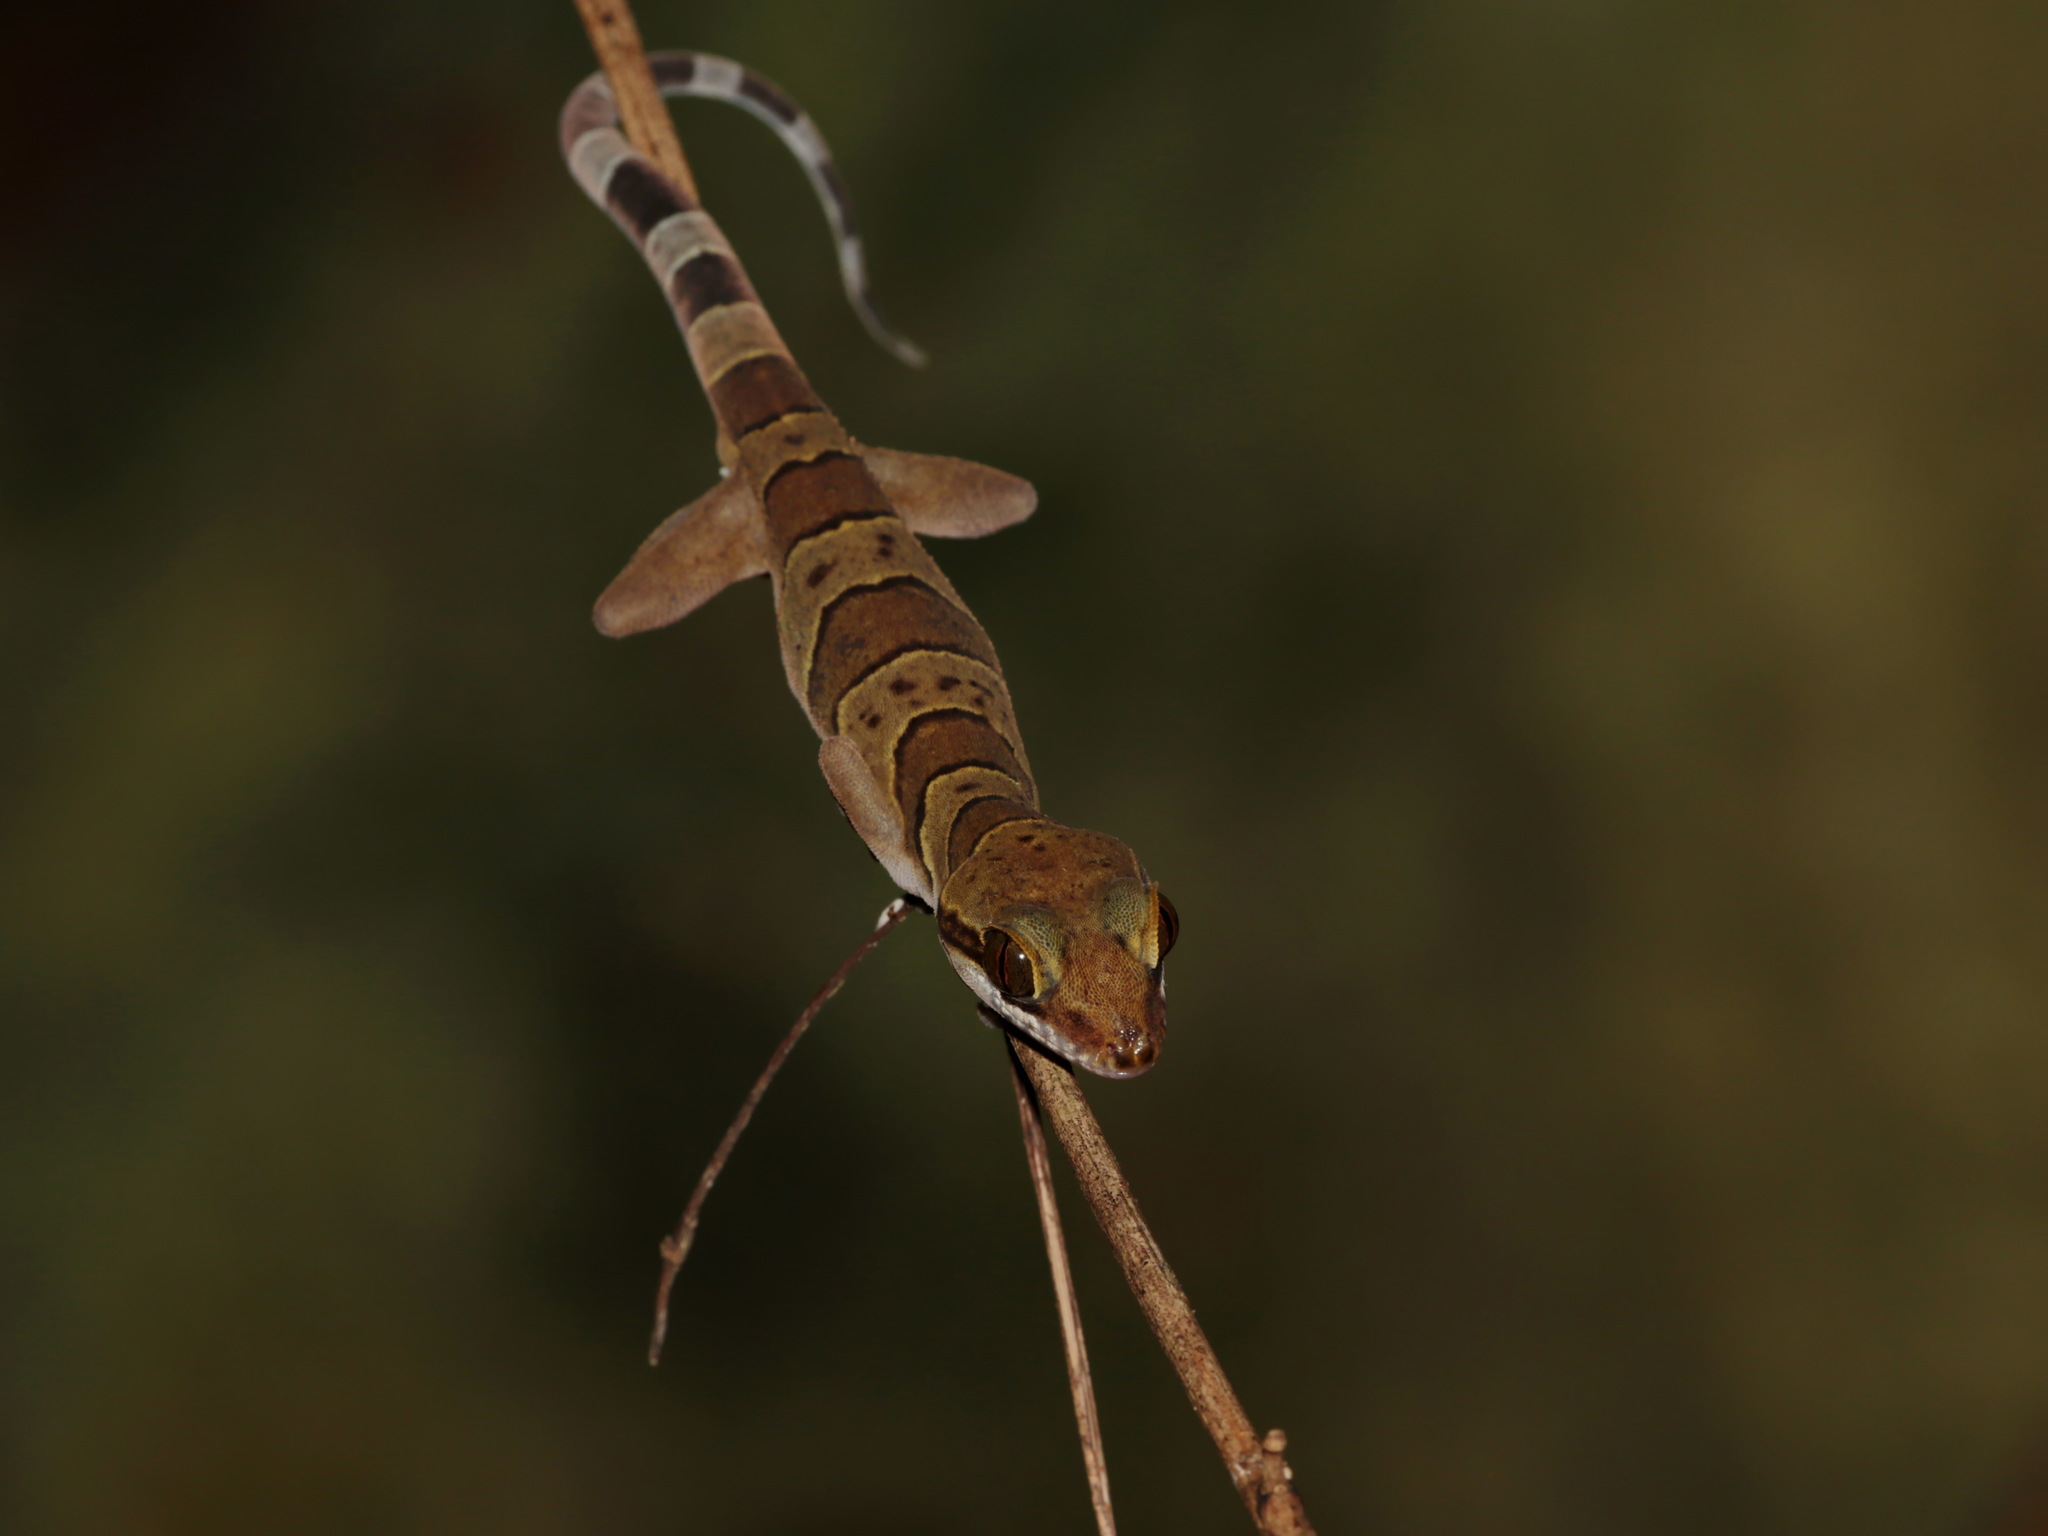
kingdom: Animalia
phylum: Chordata
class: Squamata
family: Gekkonidae
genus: Cyrtodactylus
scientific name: Cyrtodactylus samroiyot
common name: Sam roi yot bent-toed gecko
